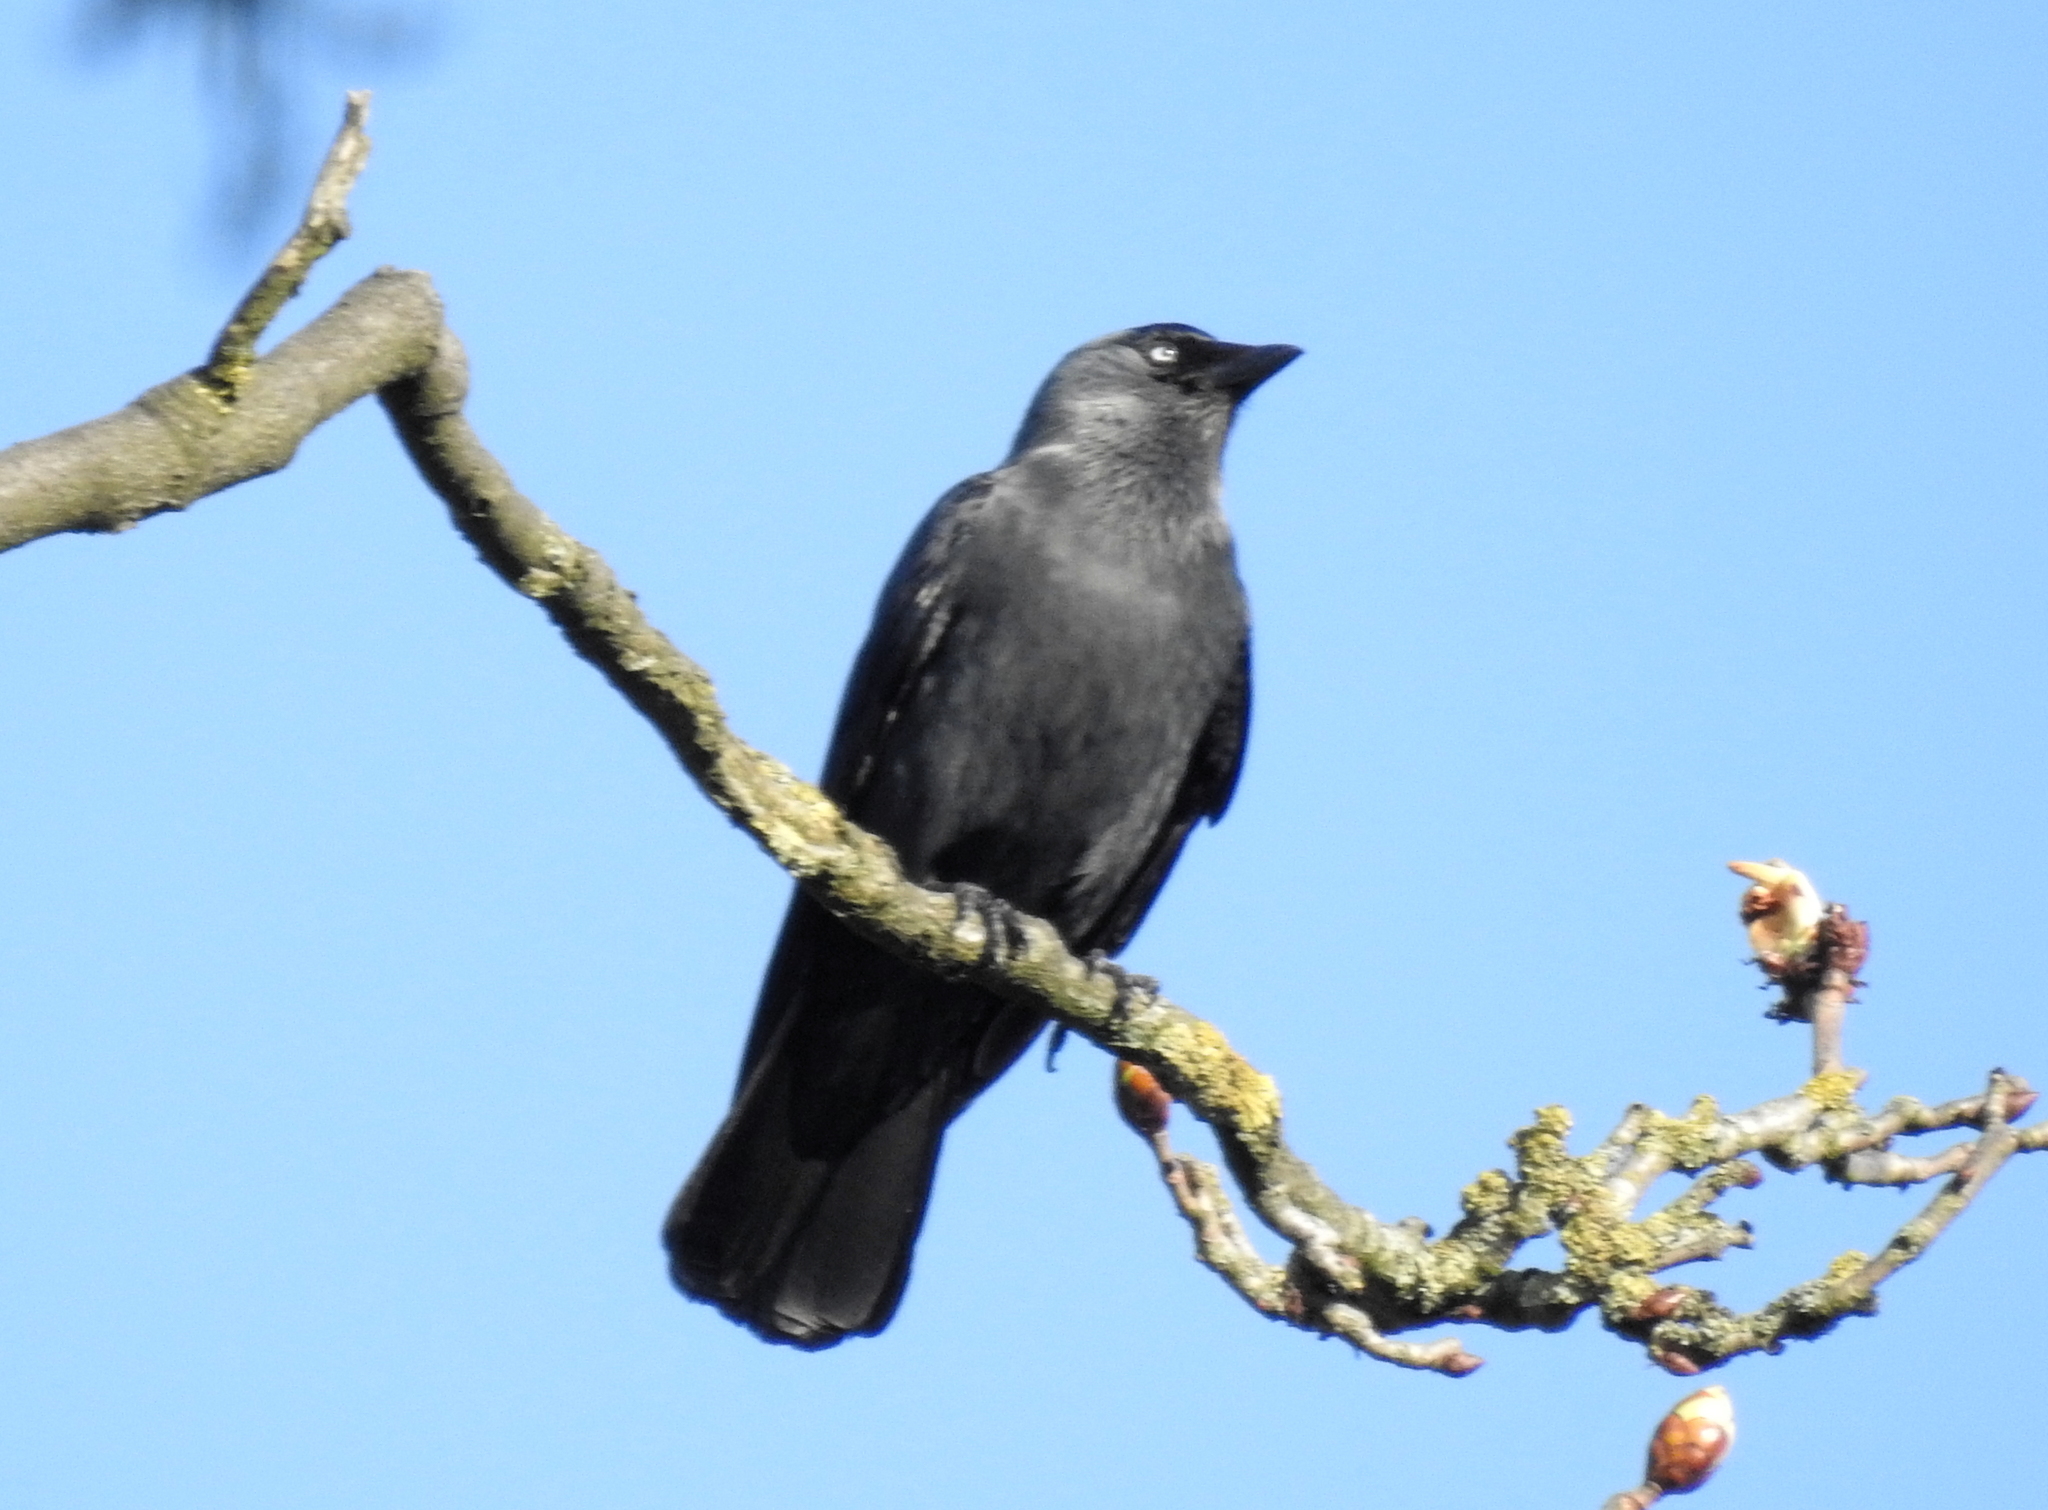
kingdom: Animalia
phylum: Chordata
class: Aves
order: Passeriformes
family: Corvidae
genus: Coloeus
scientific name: Coloeus monedula
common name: Western jackdaw
